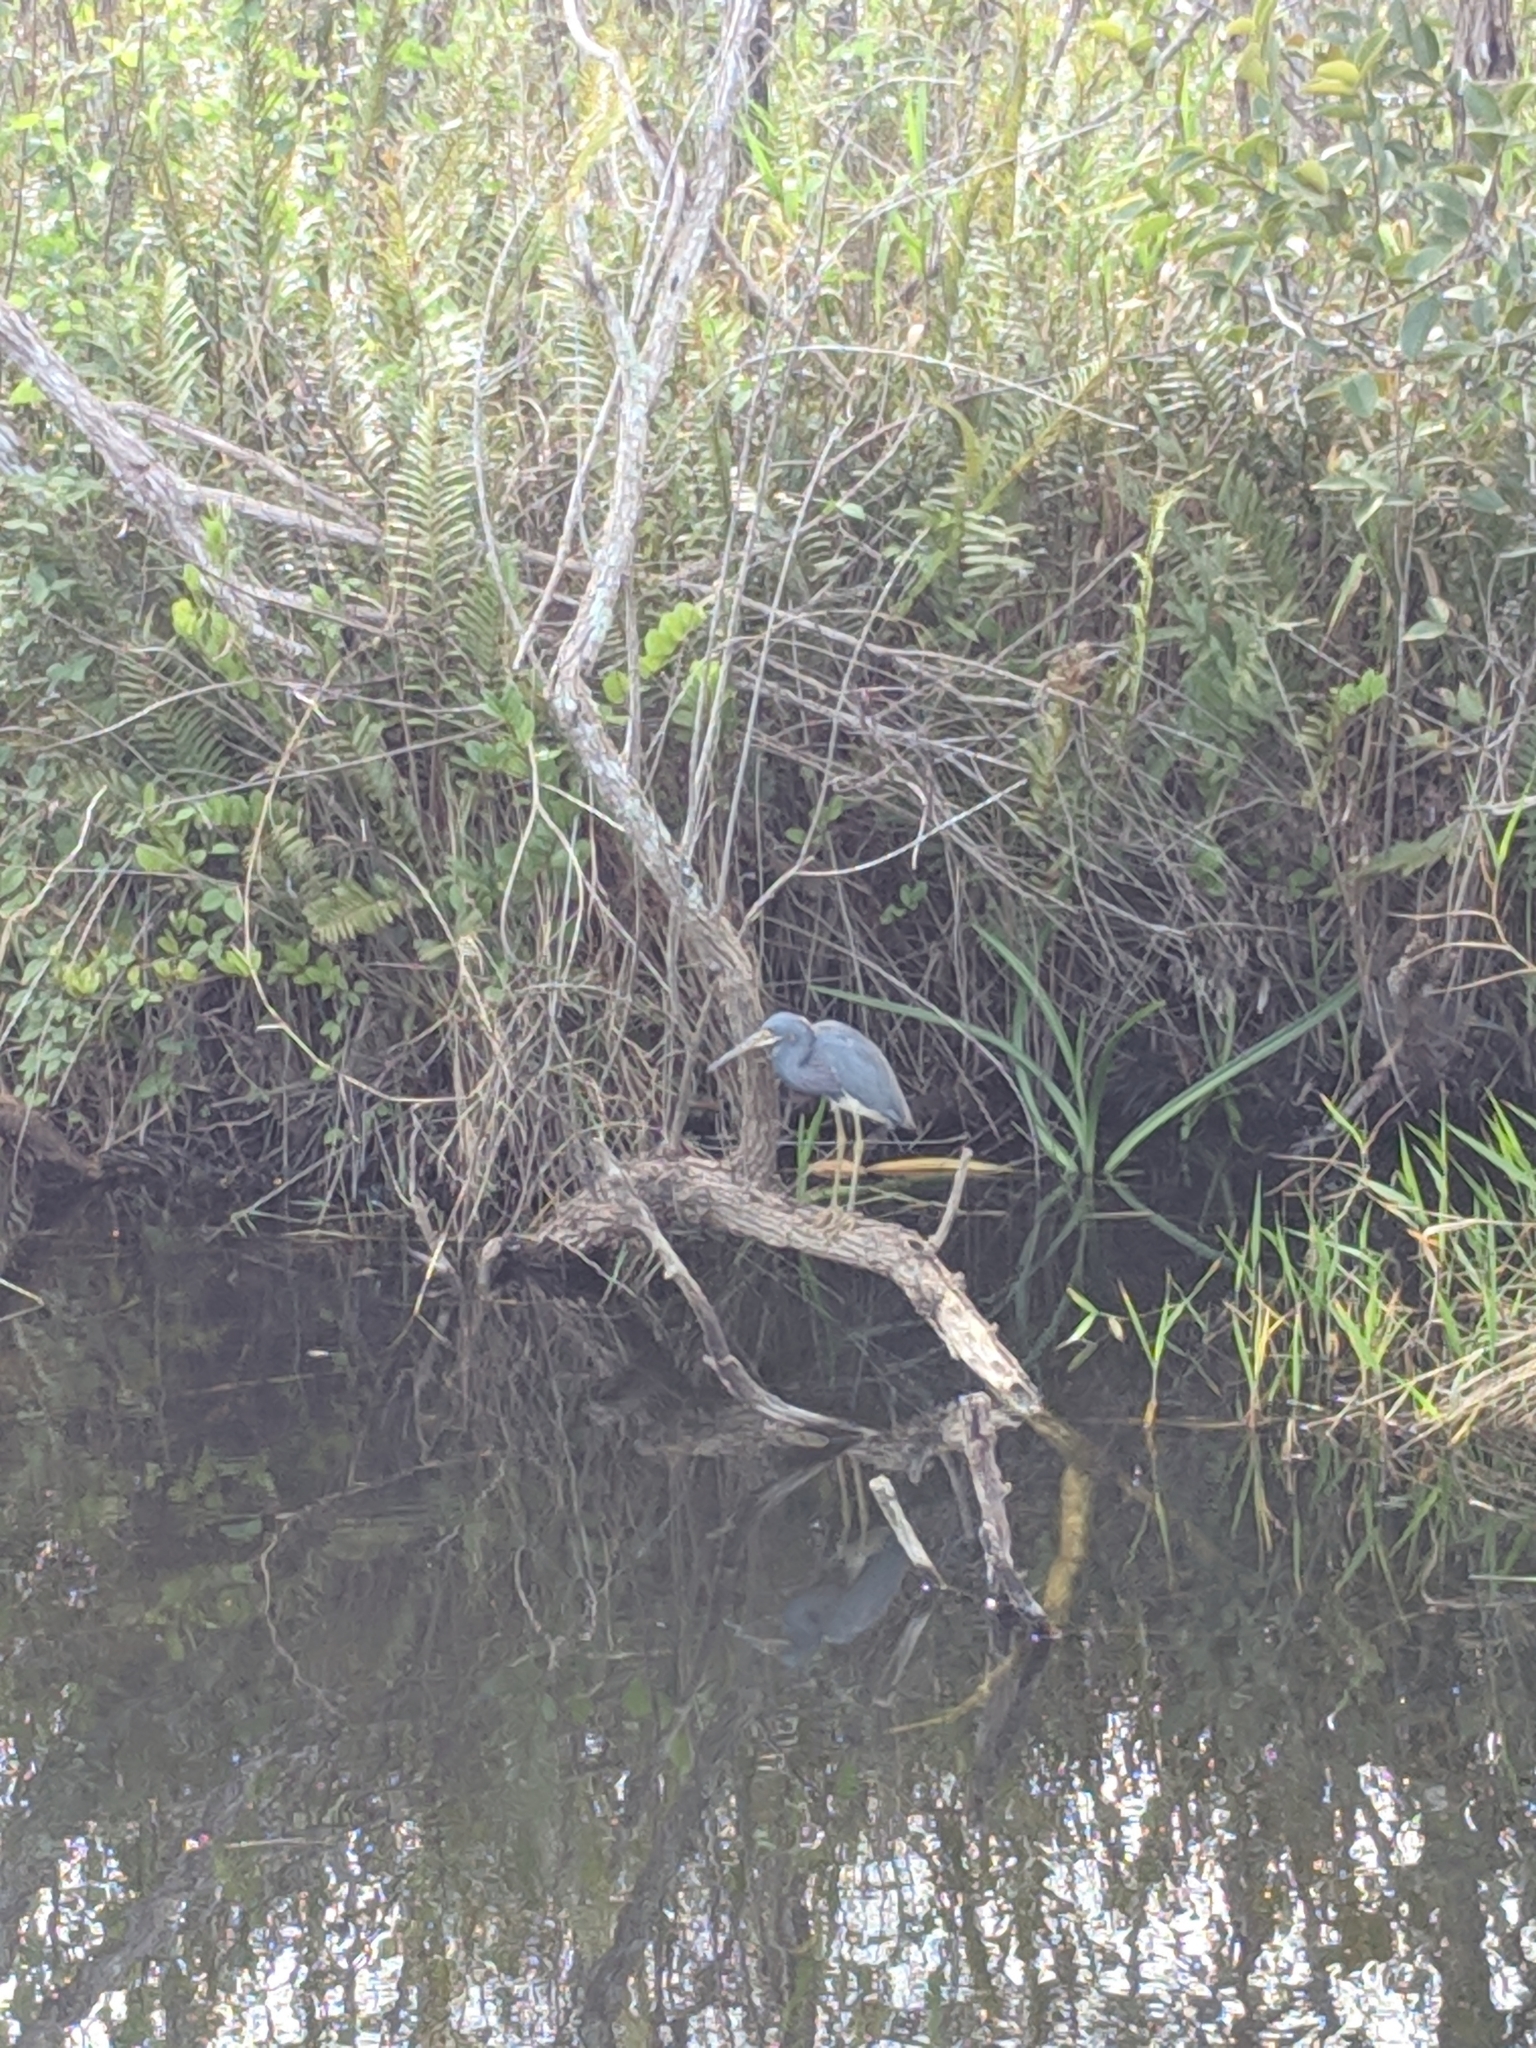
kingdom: Animalia
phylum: Chordata
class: Aves
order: Pelecaniformes
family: Ardeidae
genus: Egretta
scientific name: Egretta tricolor
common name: Tricolored heron
